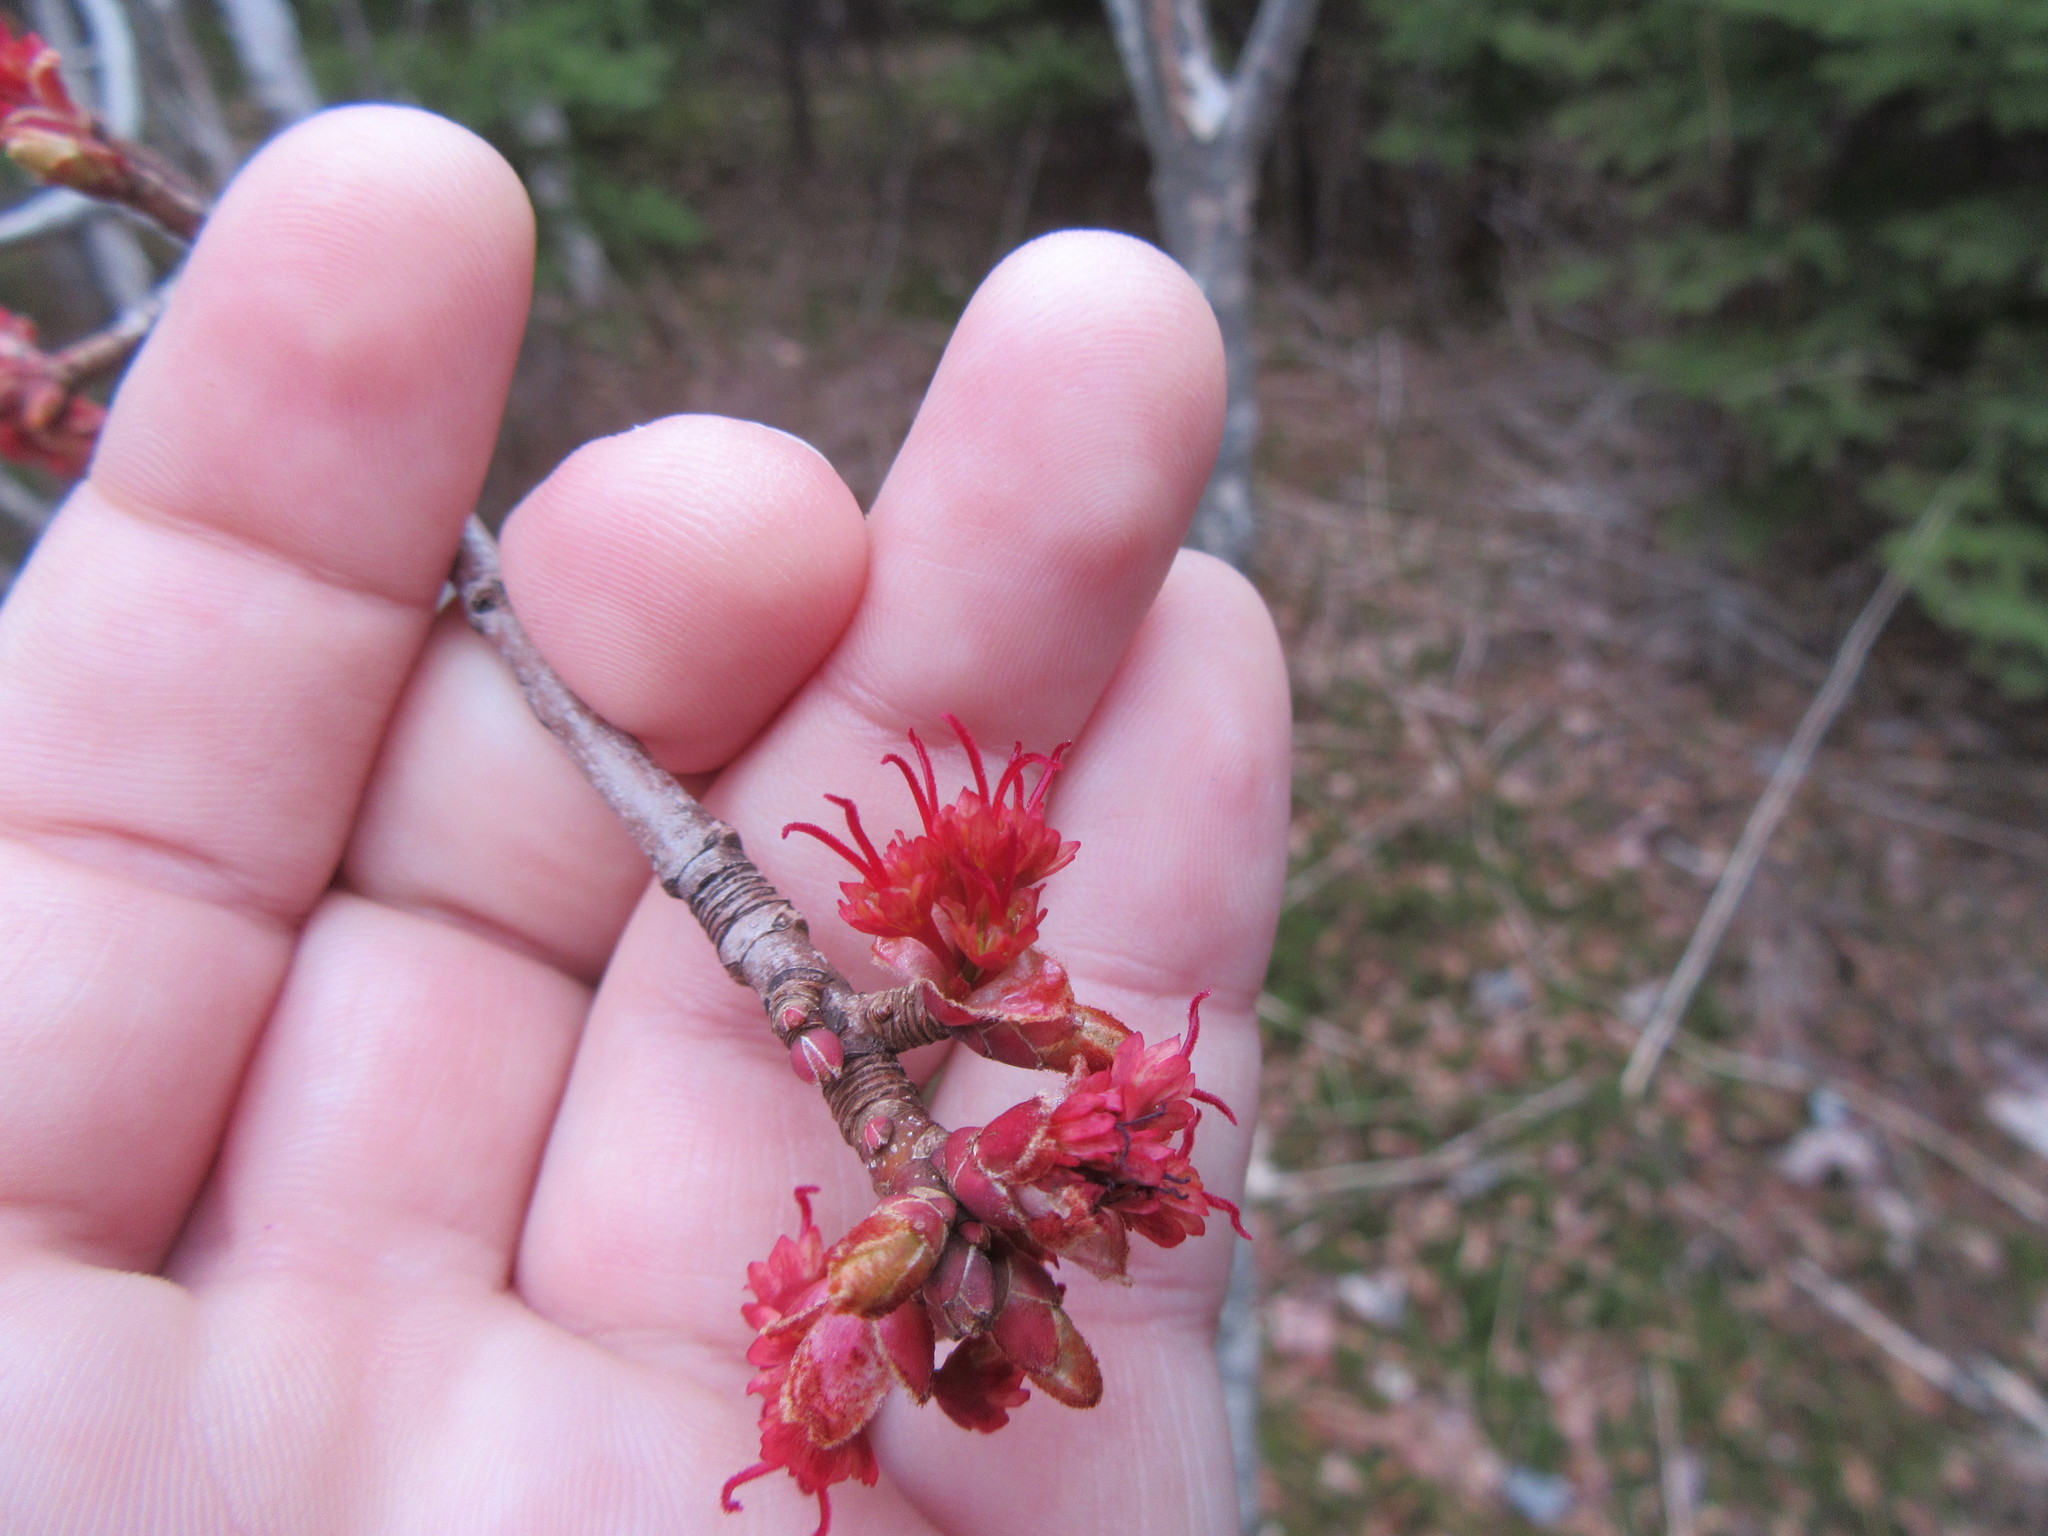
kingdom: Plantae
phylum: Tracheophyta
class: Magnoliopsida
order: Sapindales
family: Sapindaceae
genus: Acer
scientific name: Acer rubrum
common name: Red maple
